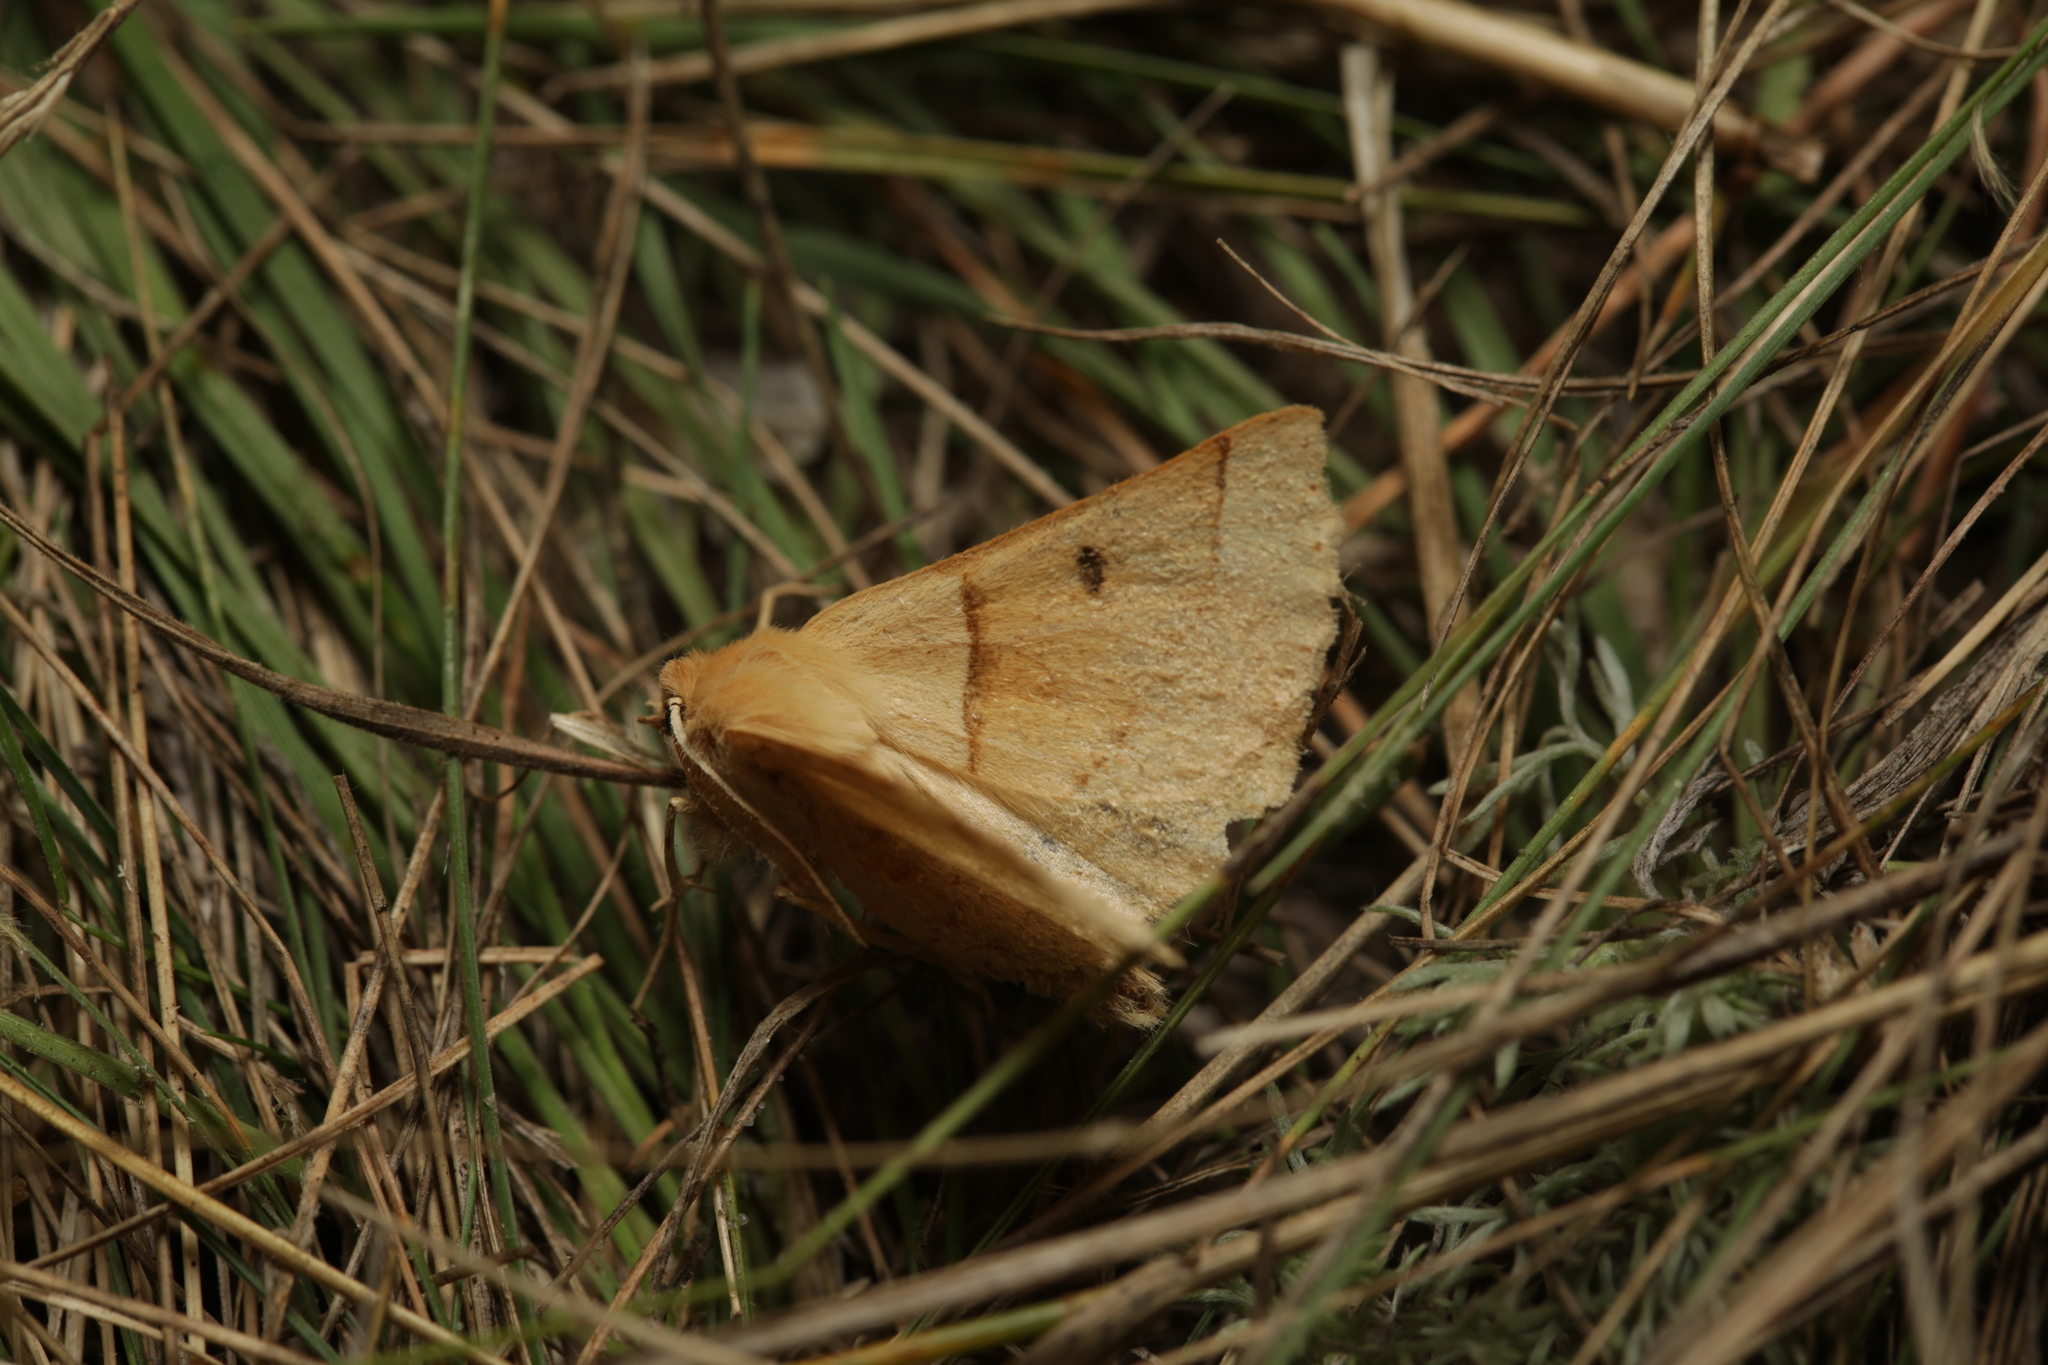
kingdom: Animalia
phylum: Arthropoda
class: Insecta
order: Lepidoptera
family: Geometridae
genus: Crocallis
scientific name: Crocallis elinguaria
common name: Scalloped oak
